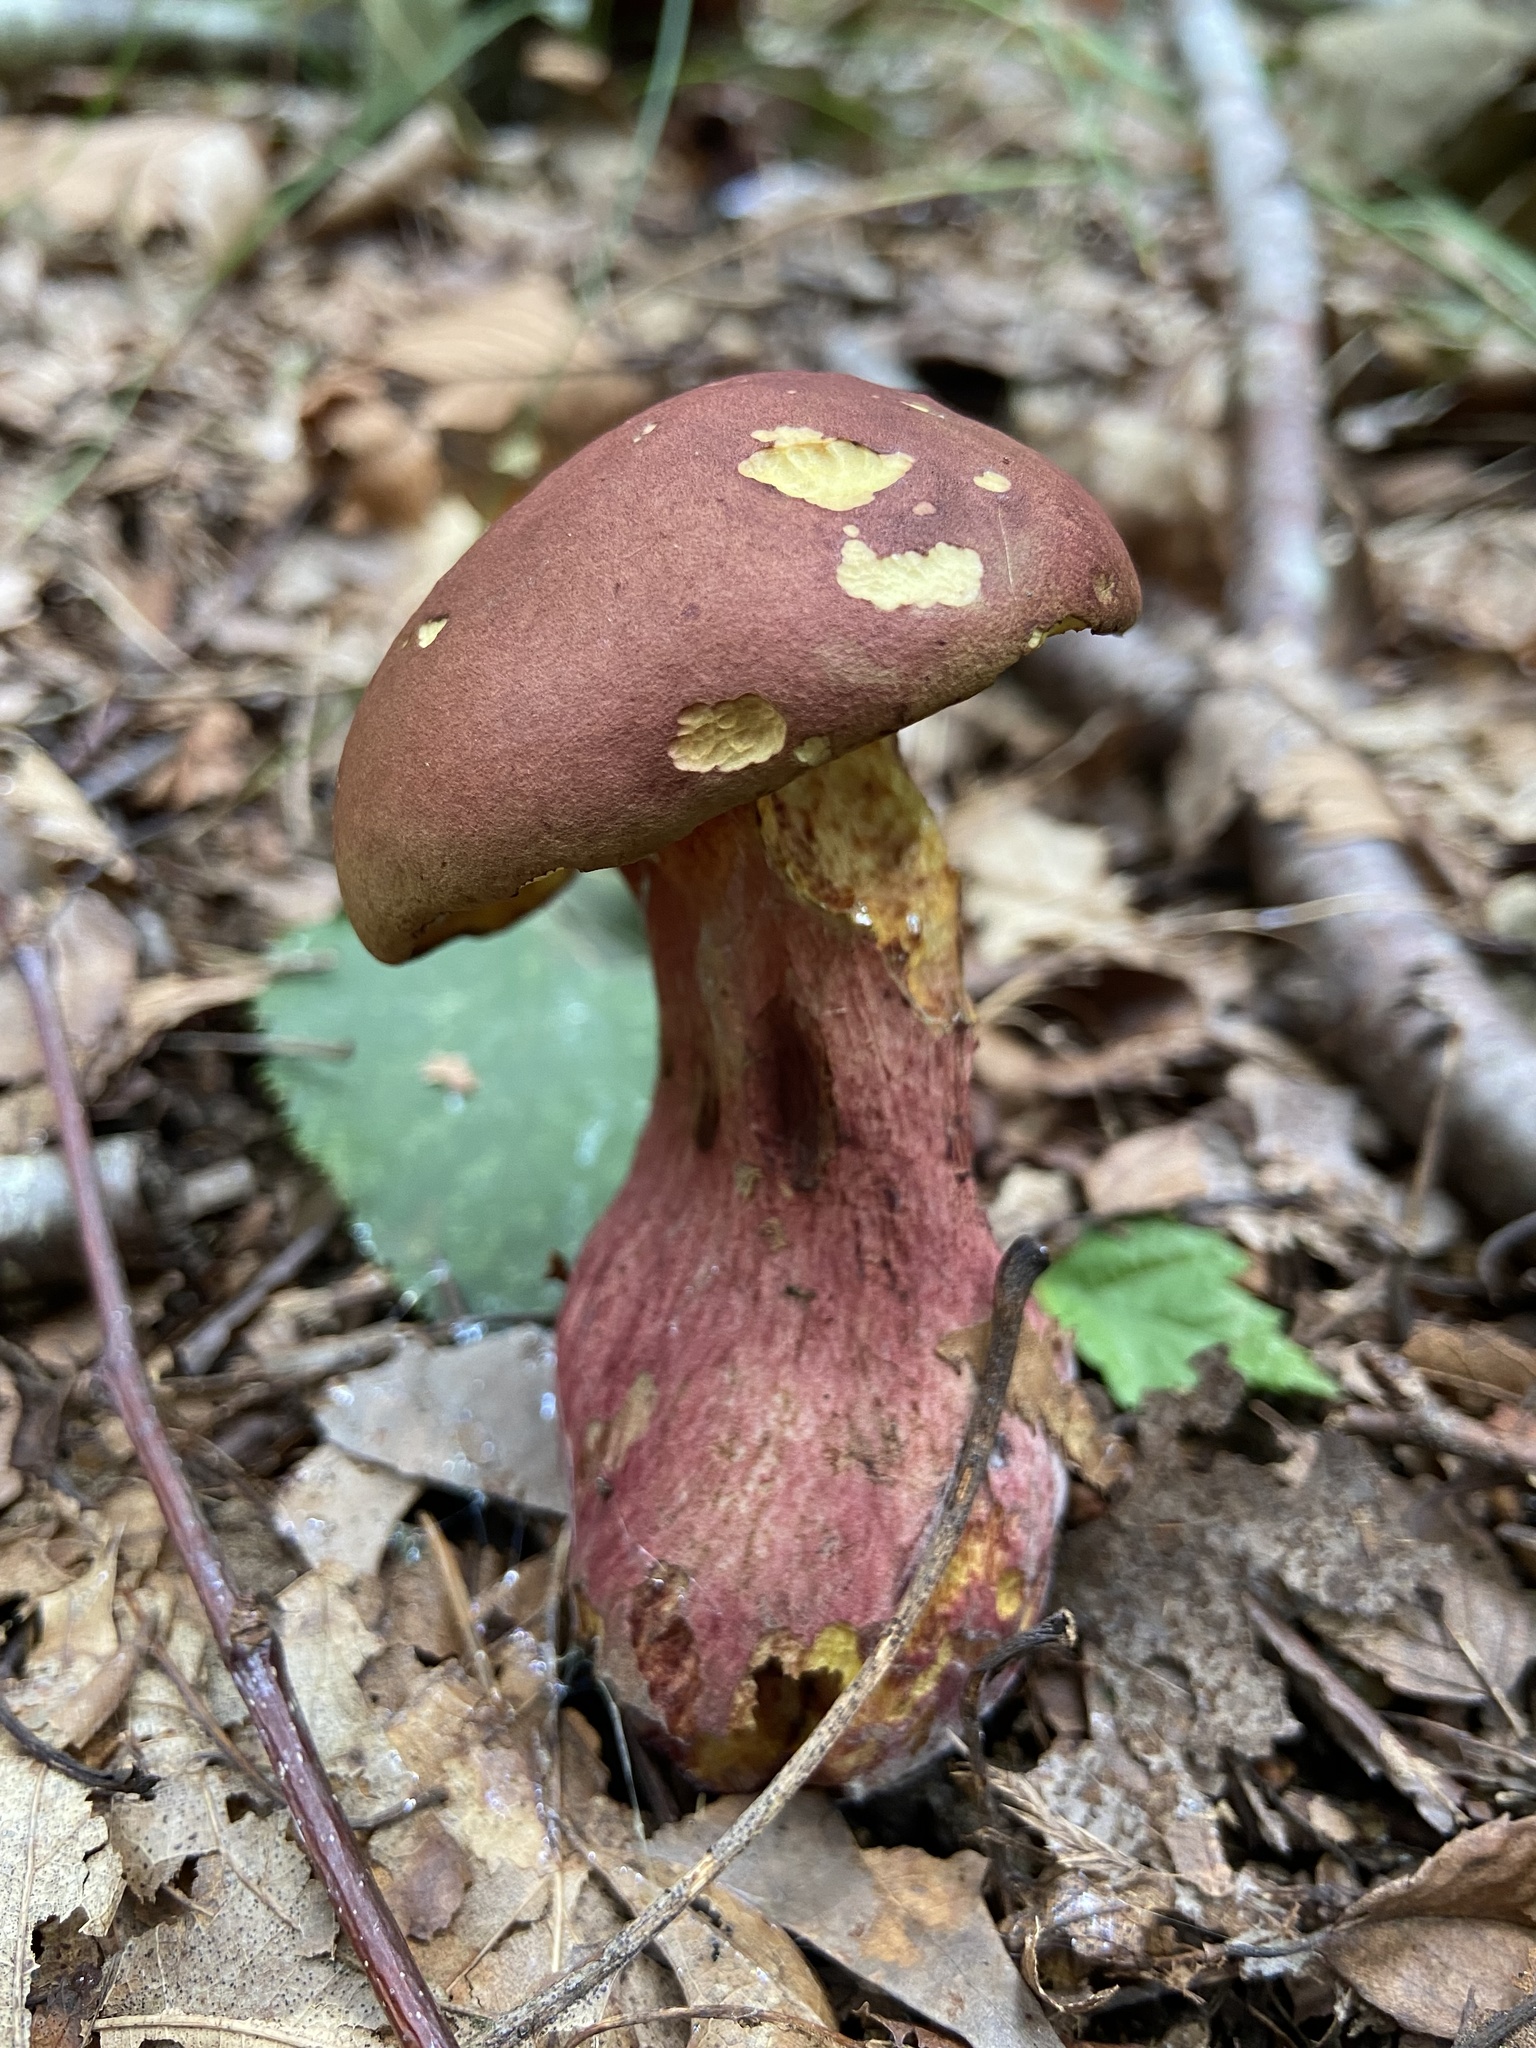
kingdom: Fungi
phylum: Basidiomycota
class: Agaricomycetes
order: Boletales
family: Boletaceae
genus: Baorangia
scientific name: Baorangia bicolor
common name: Two-colored bolete
